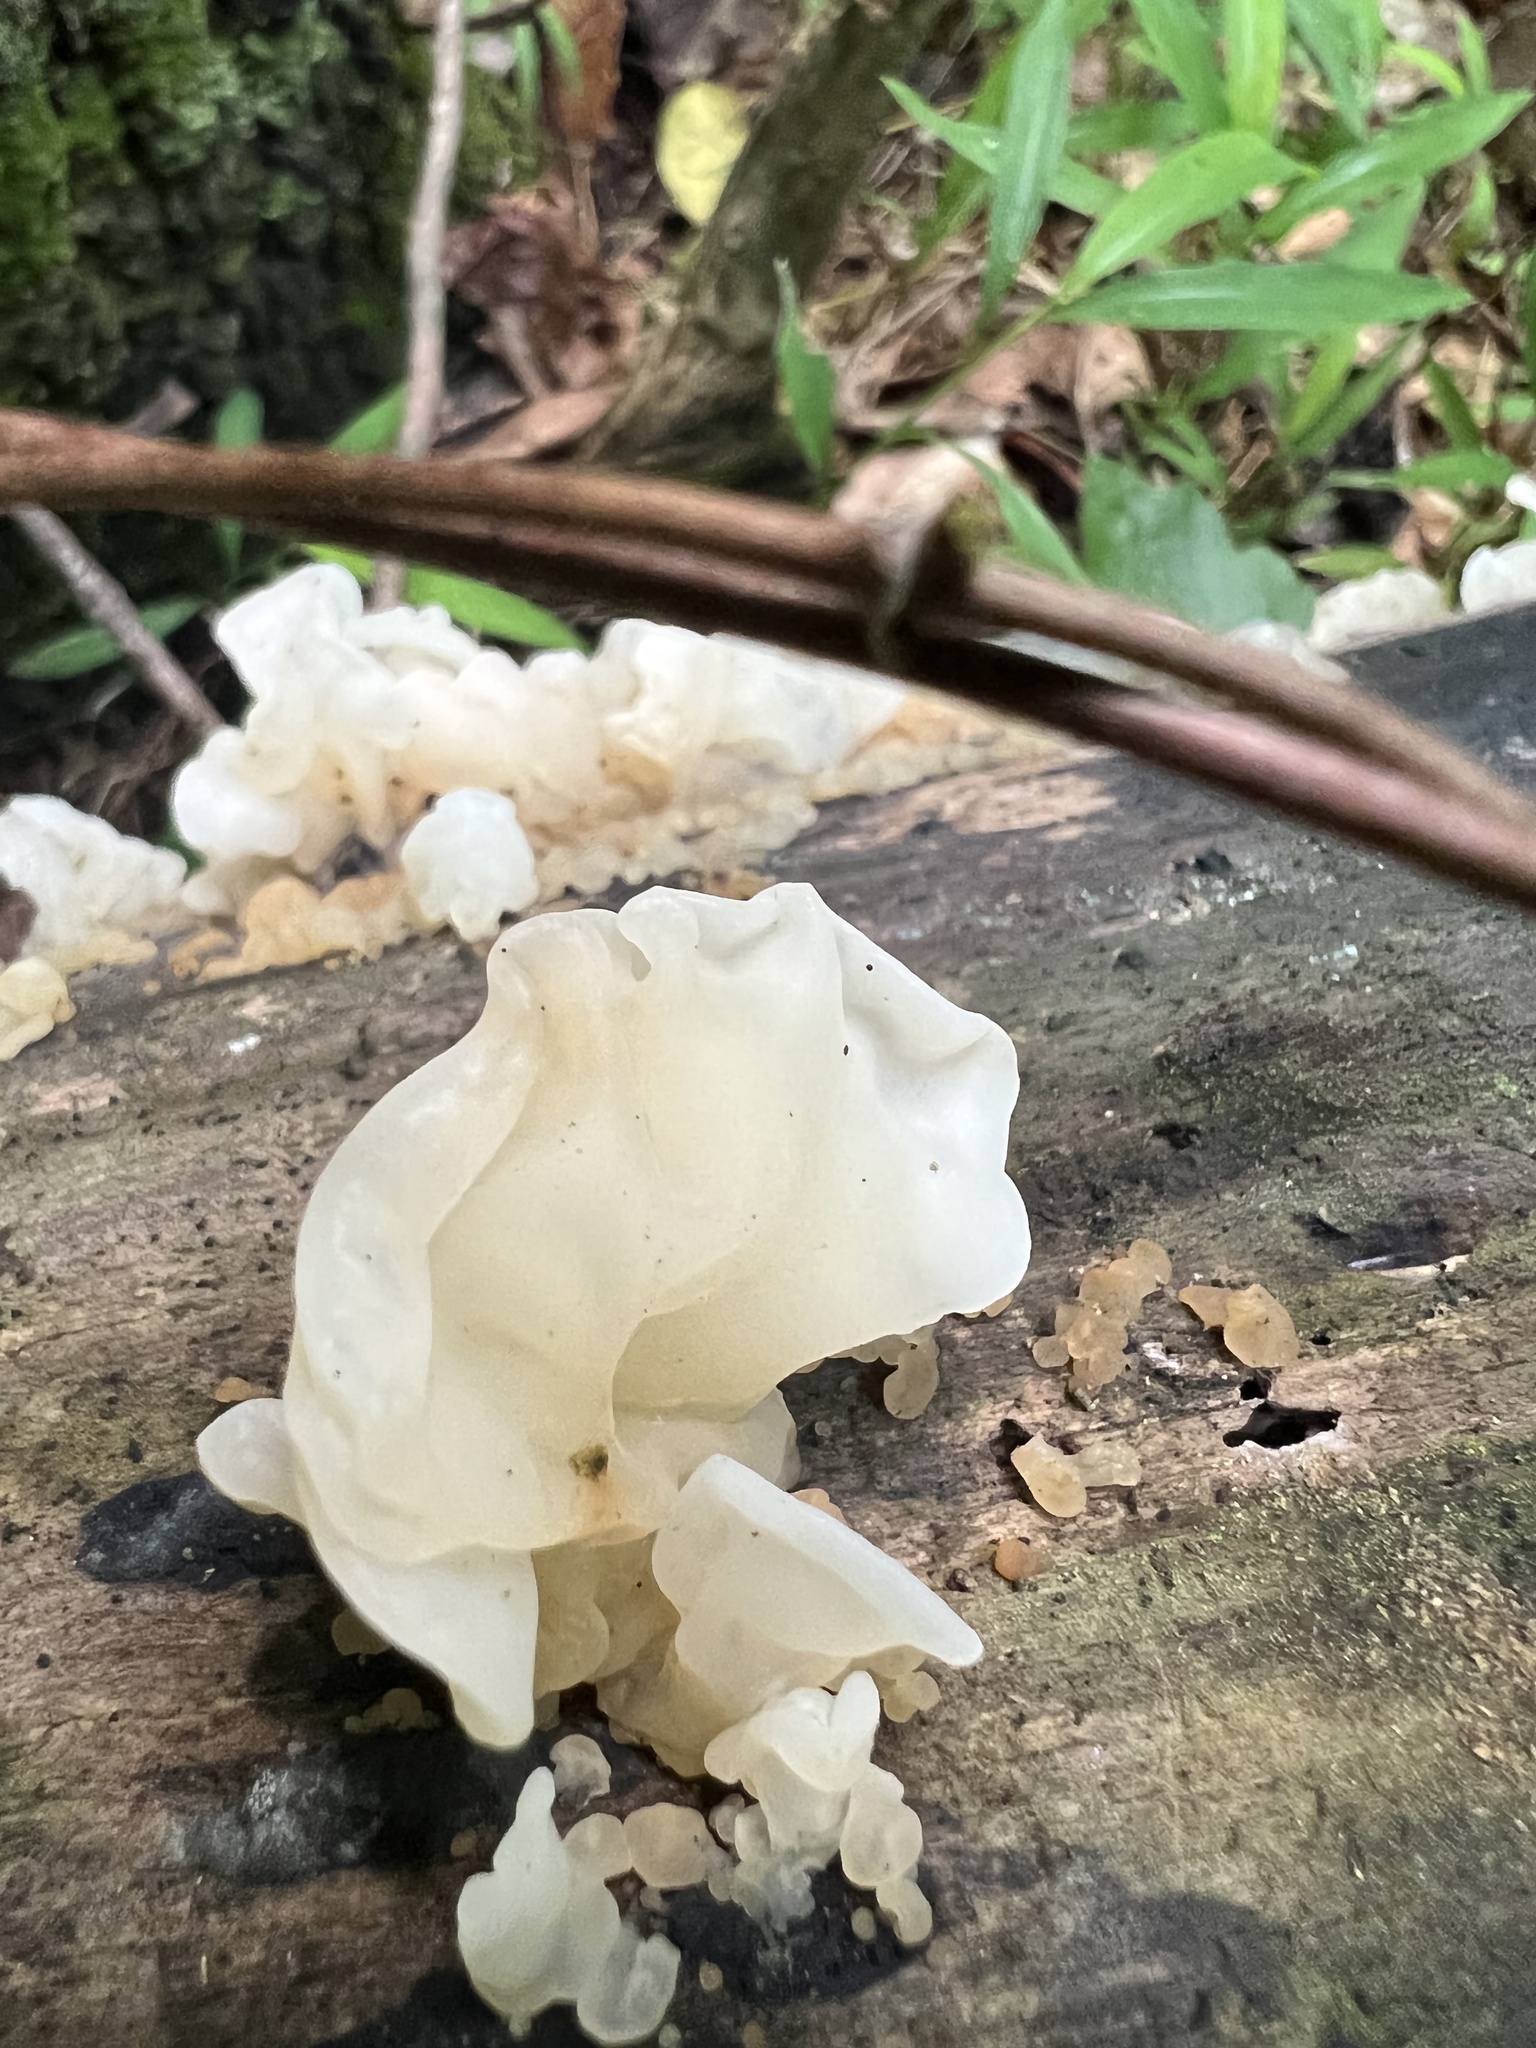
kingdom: Fungi
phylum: Basidiomycota
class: Agaricomycetes
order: Auriculariales
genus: Ductifera
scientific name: Ductifera pululahuana
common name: White jelly fungus
